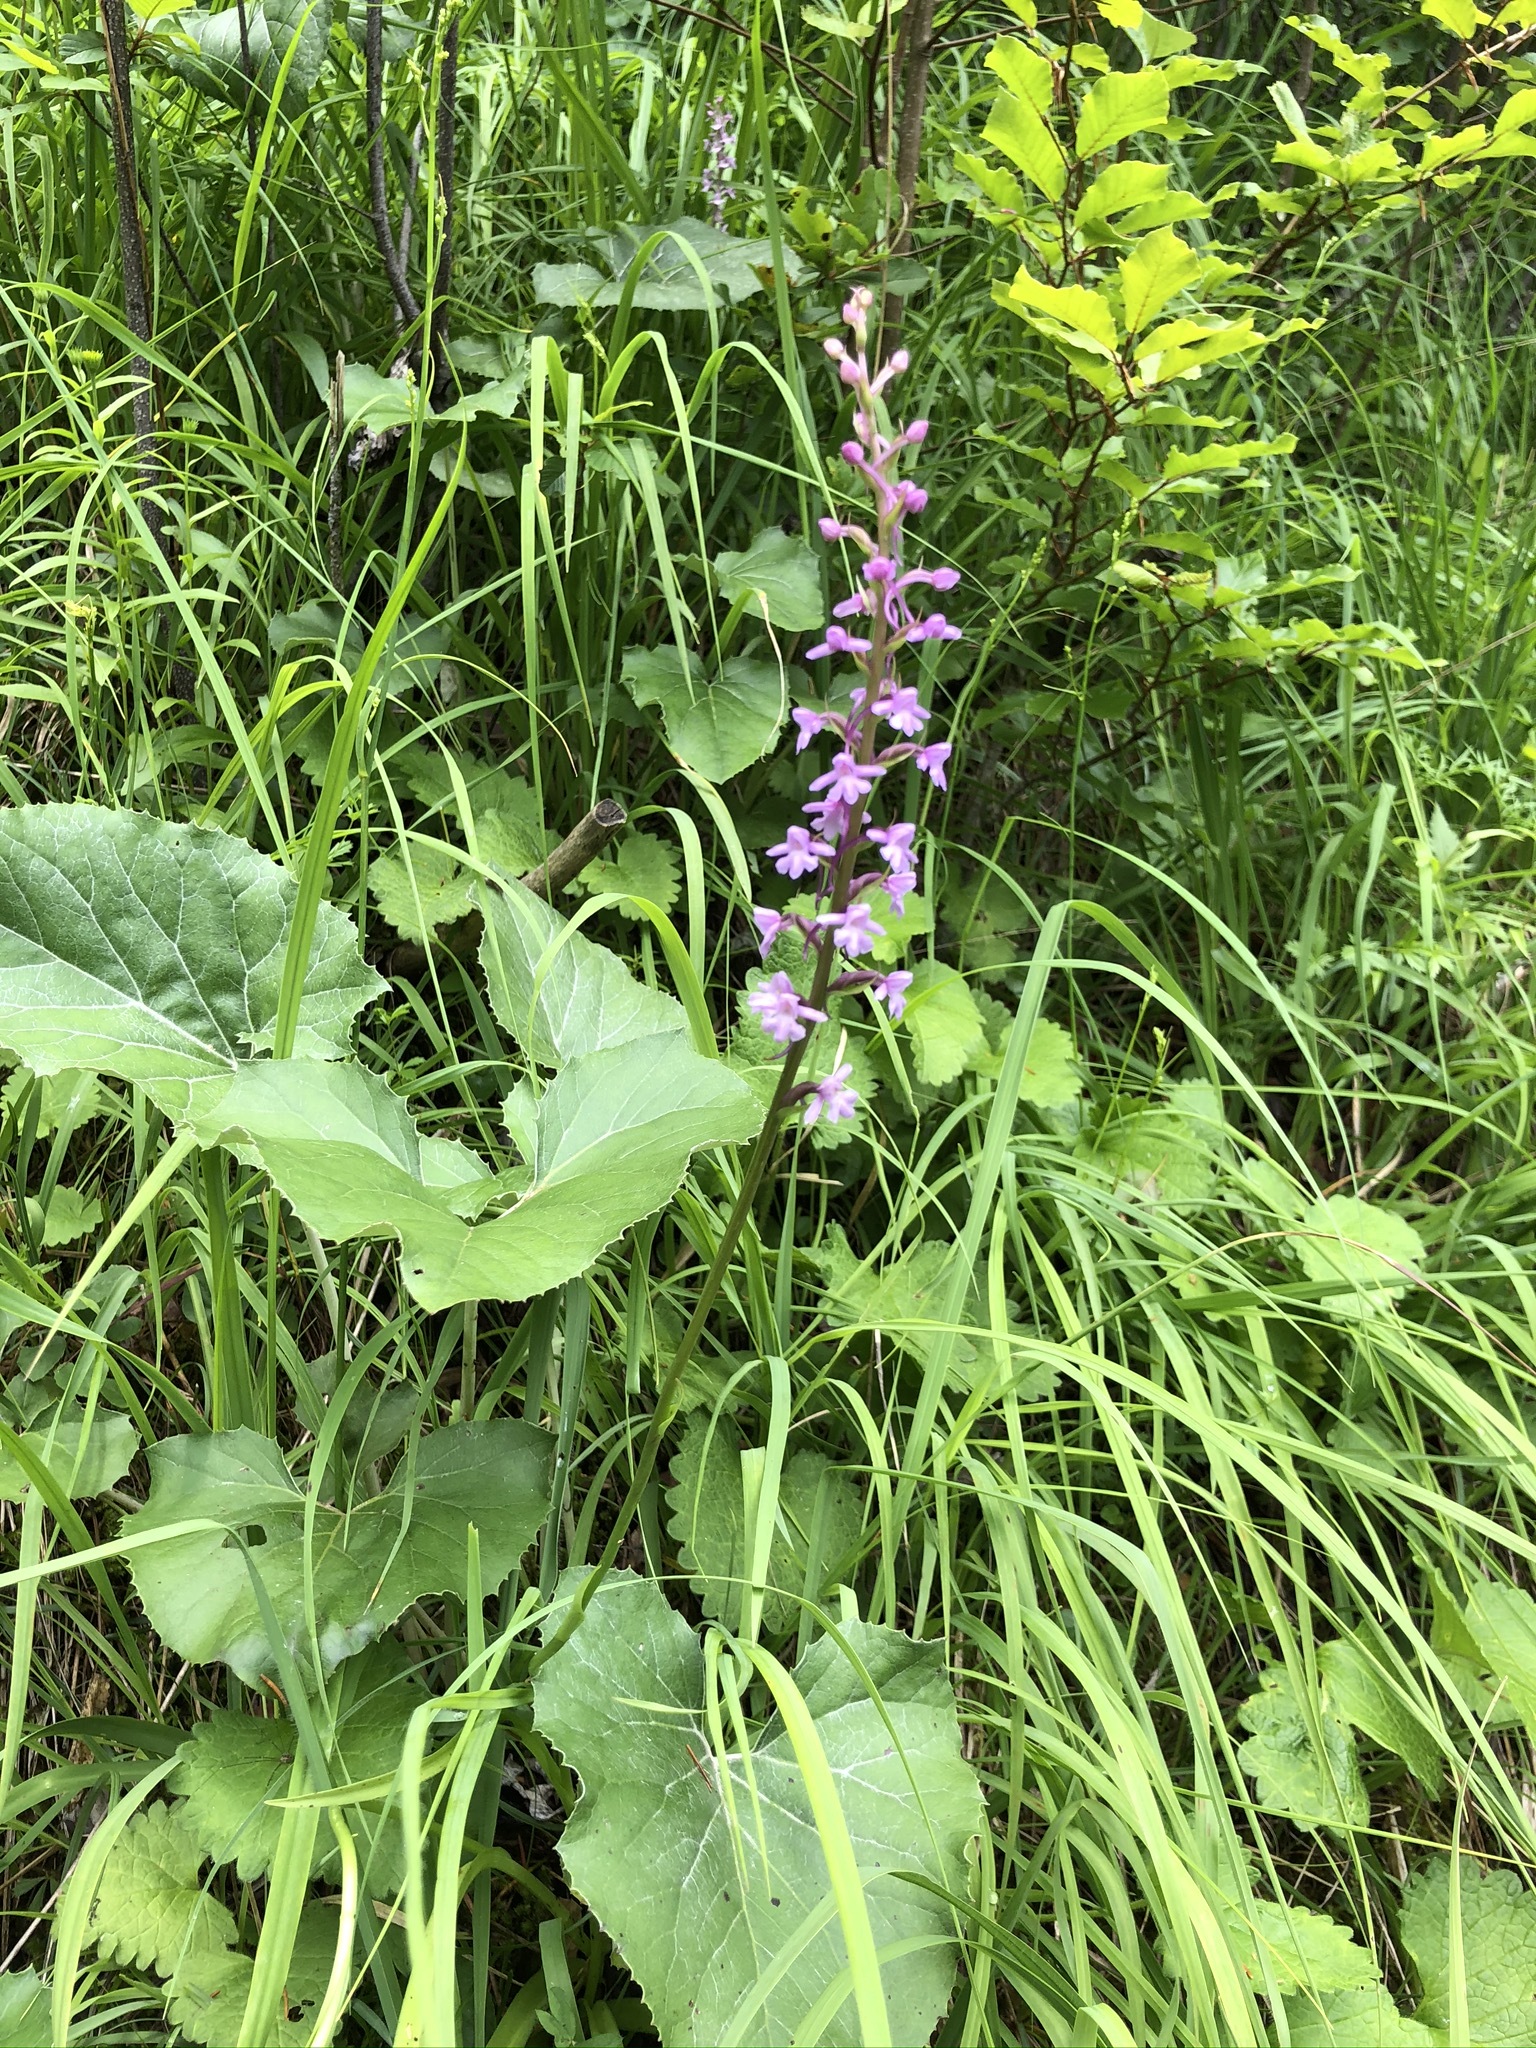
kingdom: Plantae
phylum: Tracheophyta
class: Liliopsida
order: Asparagales
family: Orchidaceae
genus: Gymnadenia
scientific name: Gymnadenia conopsea
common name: Fragrant orchid
